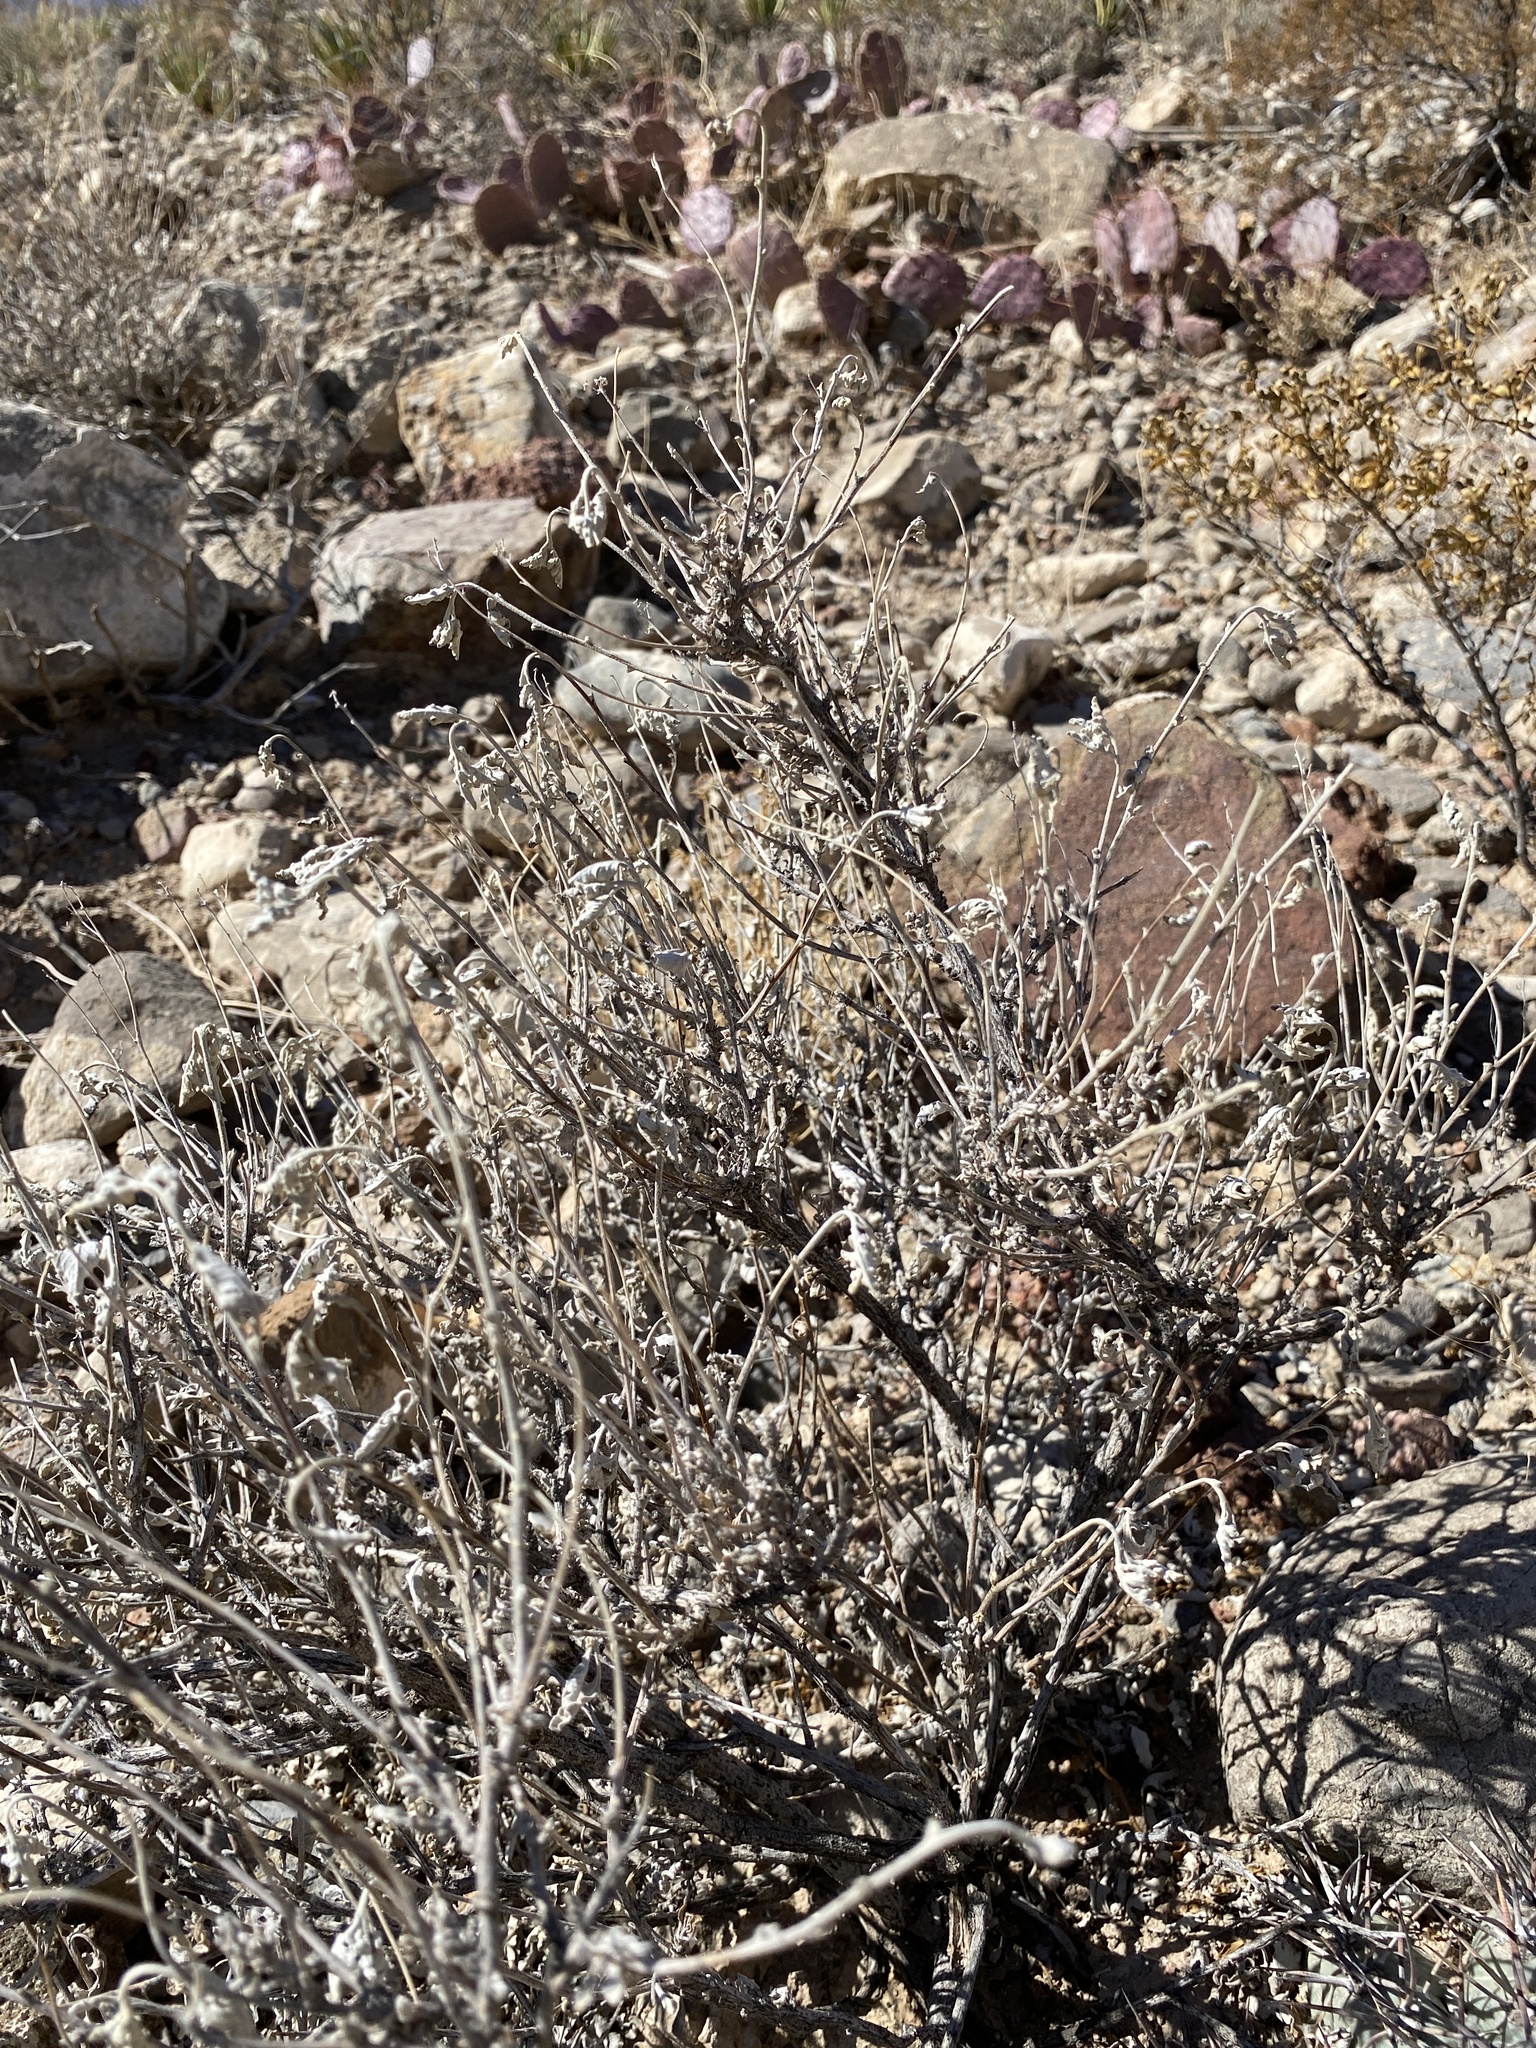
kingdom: Plantae
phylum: Tracheophyta
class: Magnoliopsida
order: Asterales
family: Asteraceae
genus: Parthenium
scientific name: Parthenium incanum
